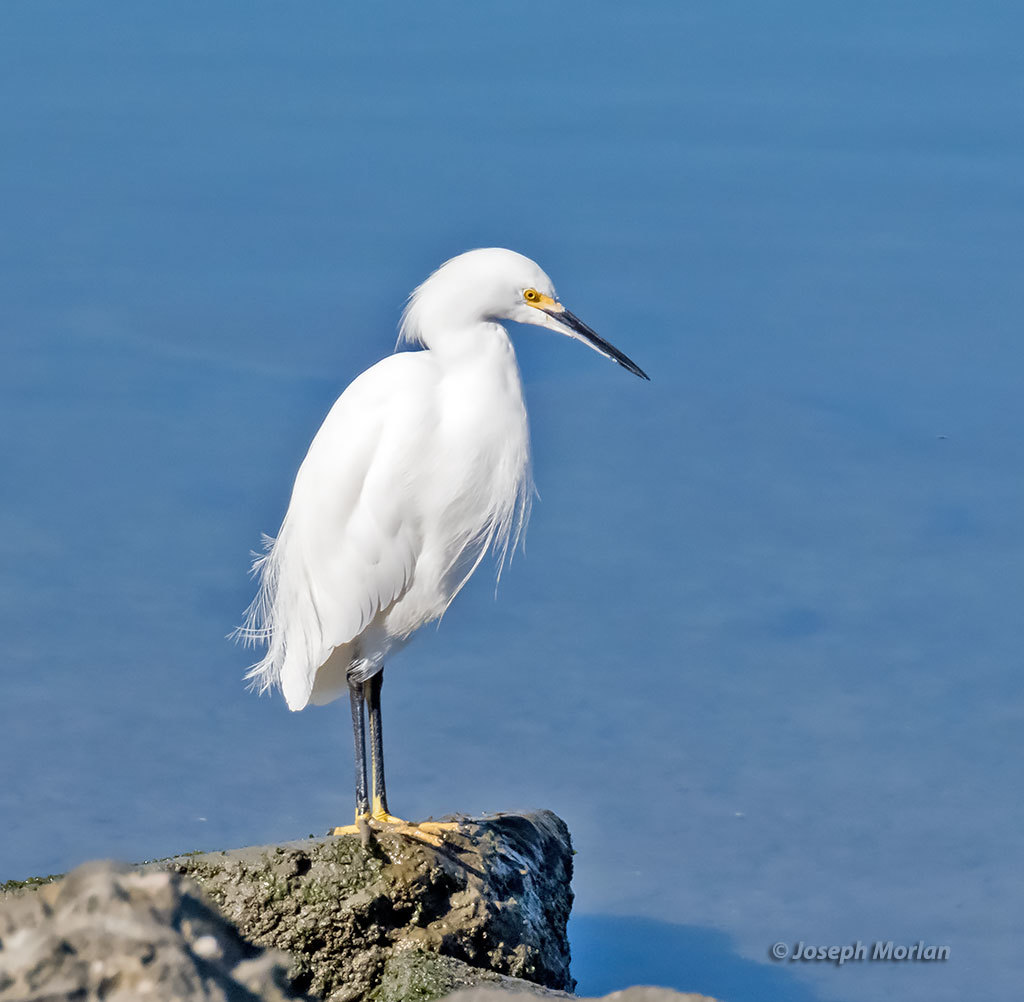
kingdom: Animalia
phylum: Chordata
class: Aves
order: Pelecaniformes
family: Ardeidae
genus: Egretta
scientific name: Egretta thula
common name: Snowy egret
